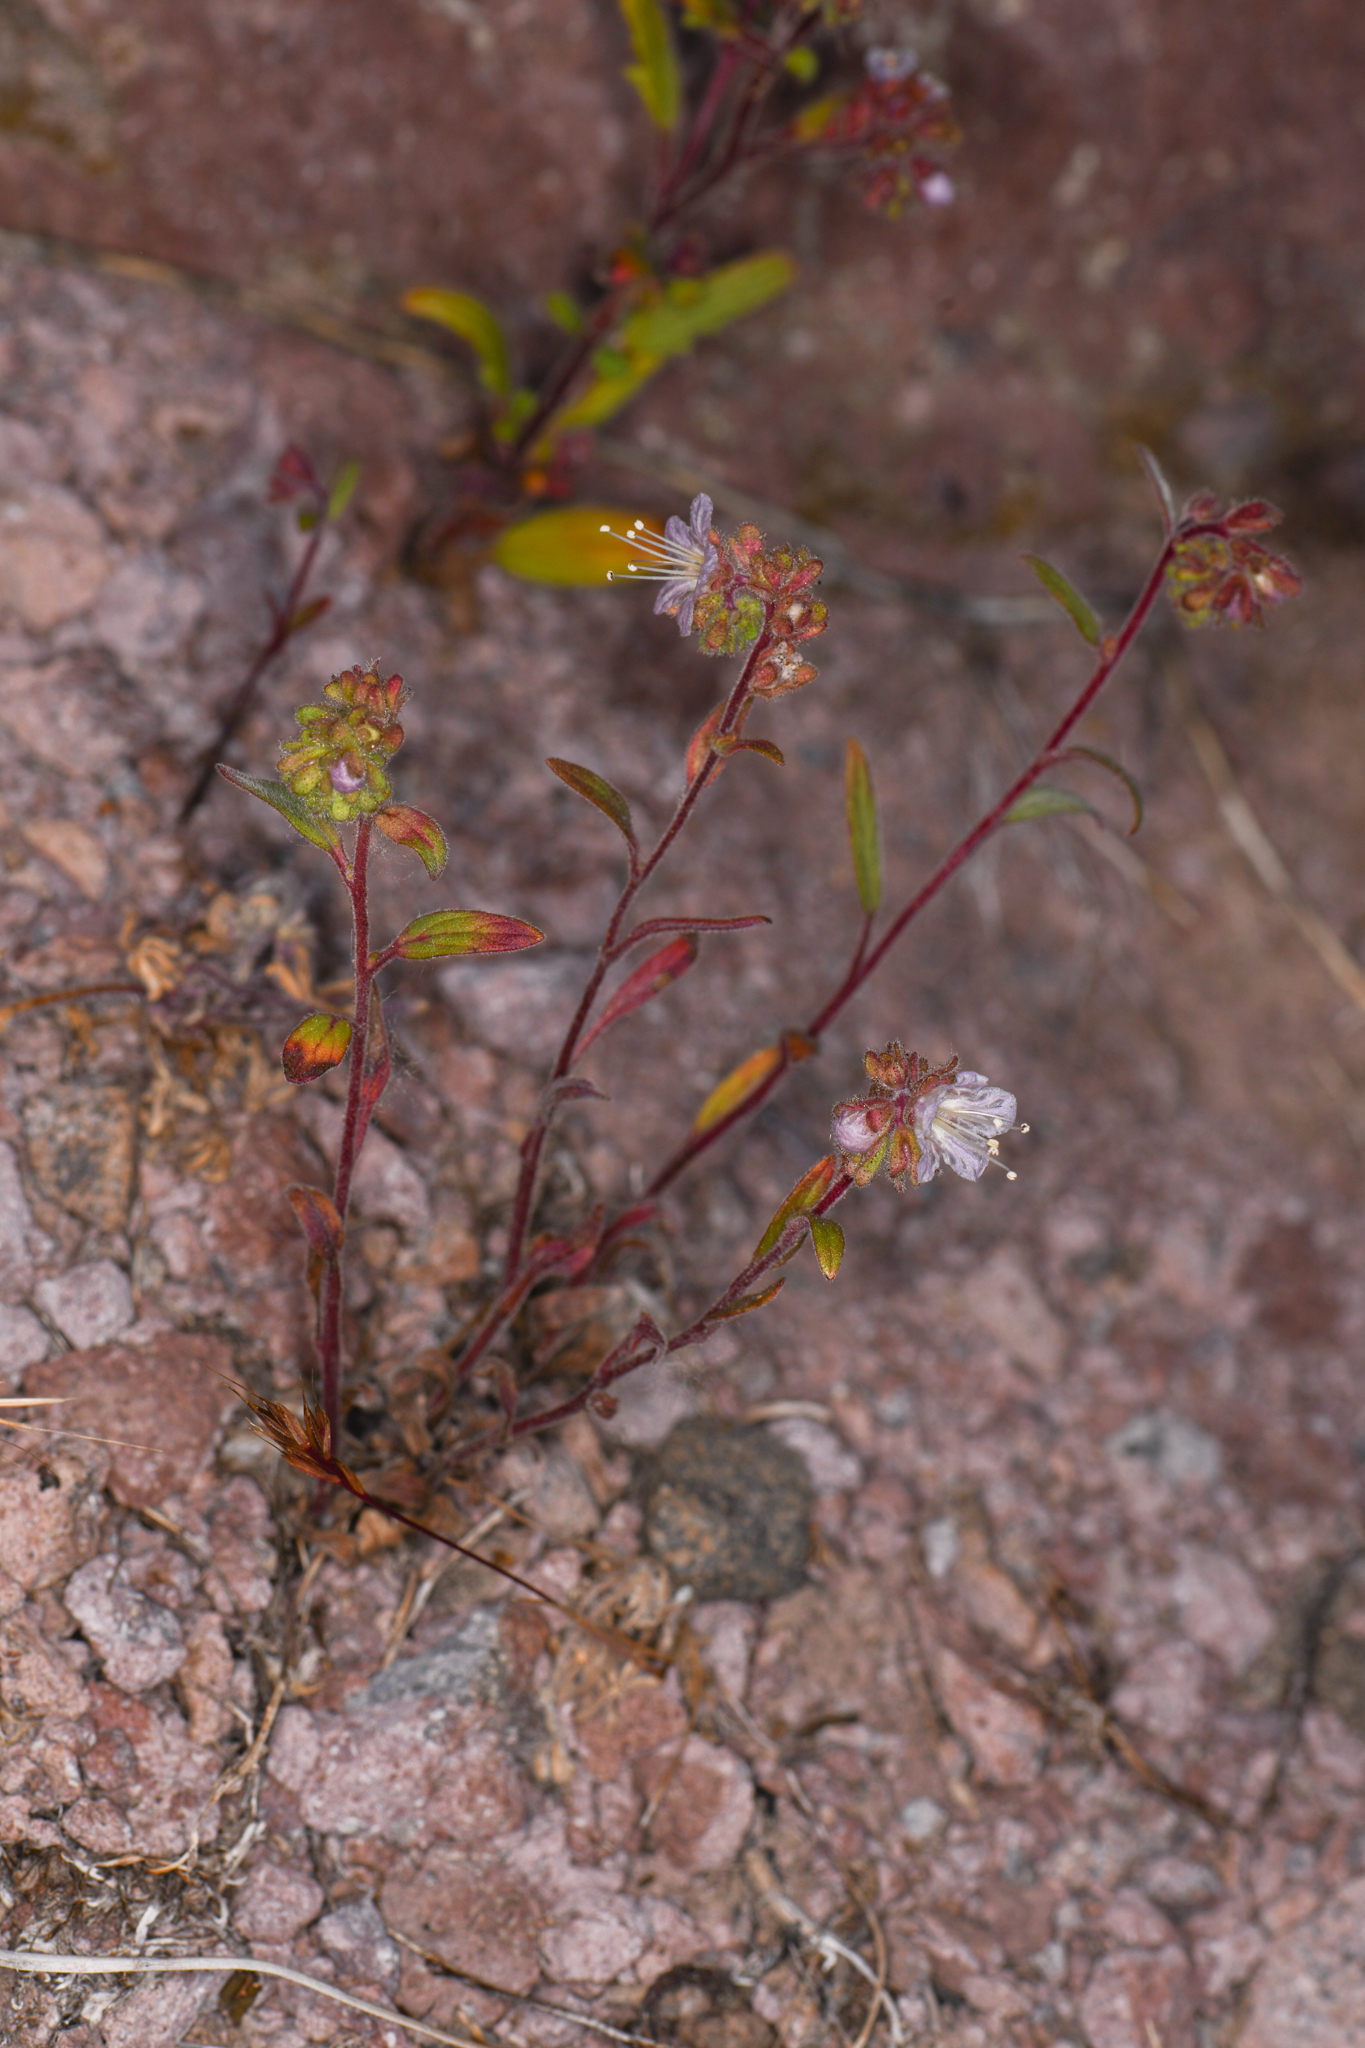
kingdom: Plantae
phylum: Tracheophyta
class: Magnoliopsida
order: Boraginales
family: Hydrophyllaceae
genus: Phacelia
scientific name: Phacelia purpusii
